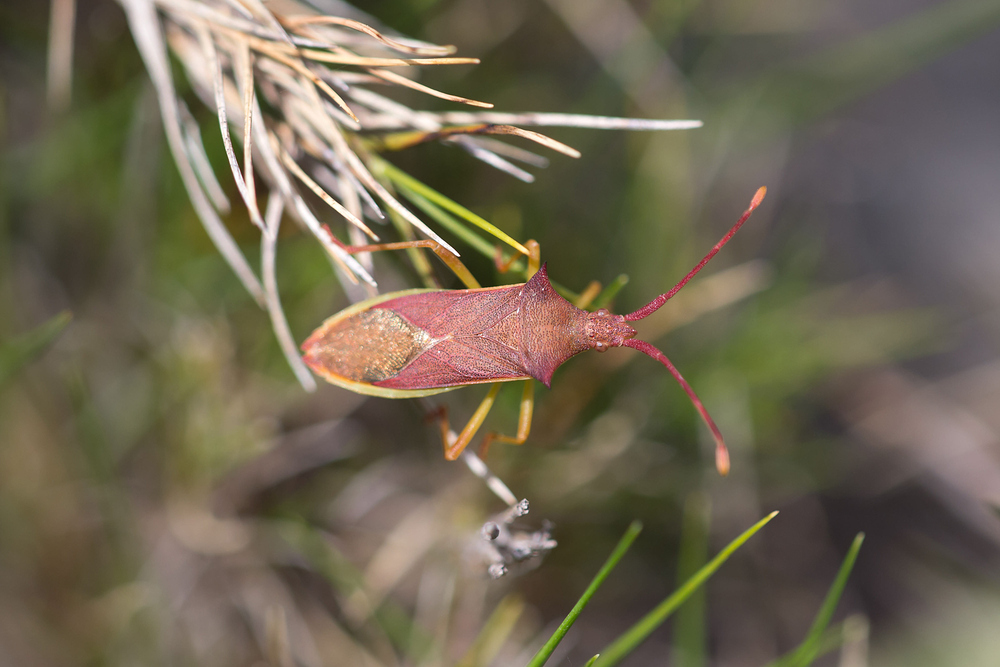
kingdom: Animalia
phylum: Arthropoda
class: Insecta
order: Hemiptera
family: Coreidae
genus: Gonocerus
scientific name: Gonocerus insidiator
